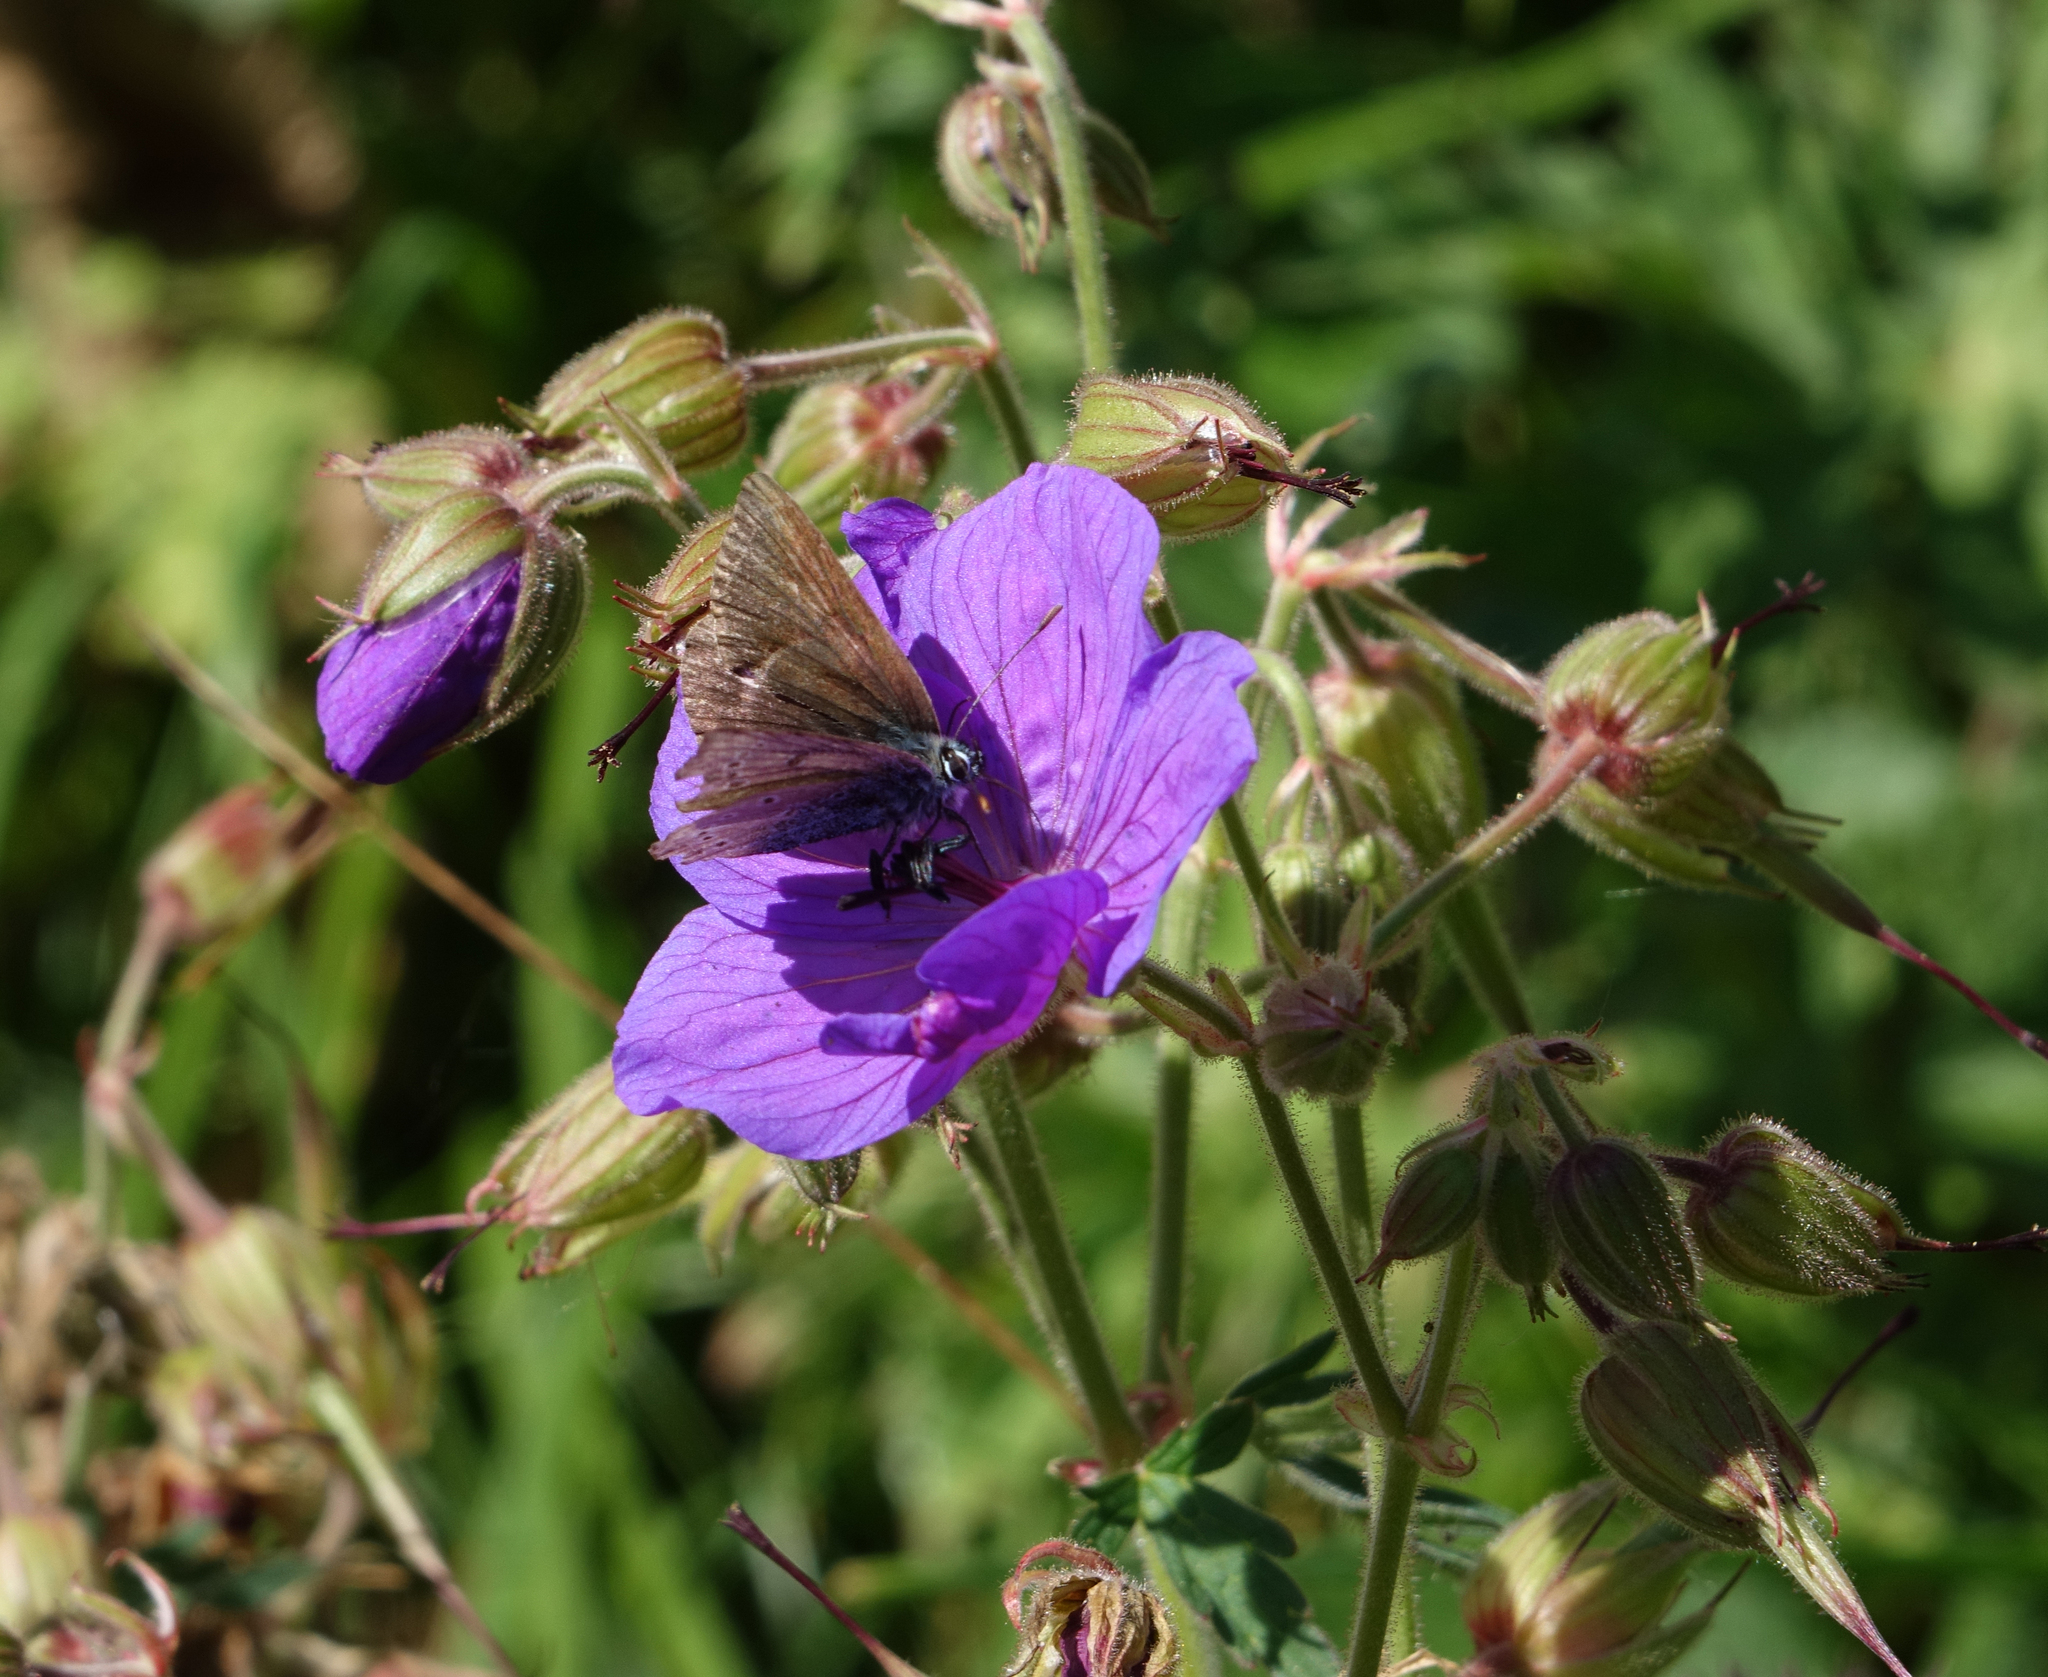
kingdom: Animalia
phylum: Arthropoda
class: Insecta
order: Lepidoptera
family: Lycaenidae
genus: Eumedonia
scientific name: Eumedonia eumedon
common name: Geranium argus
